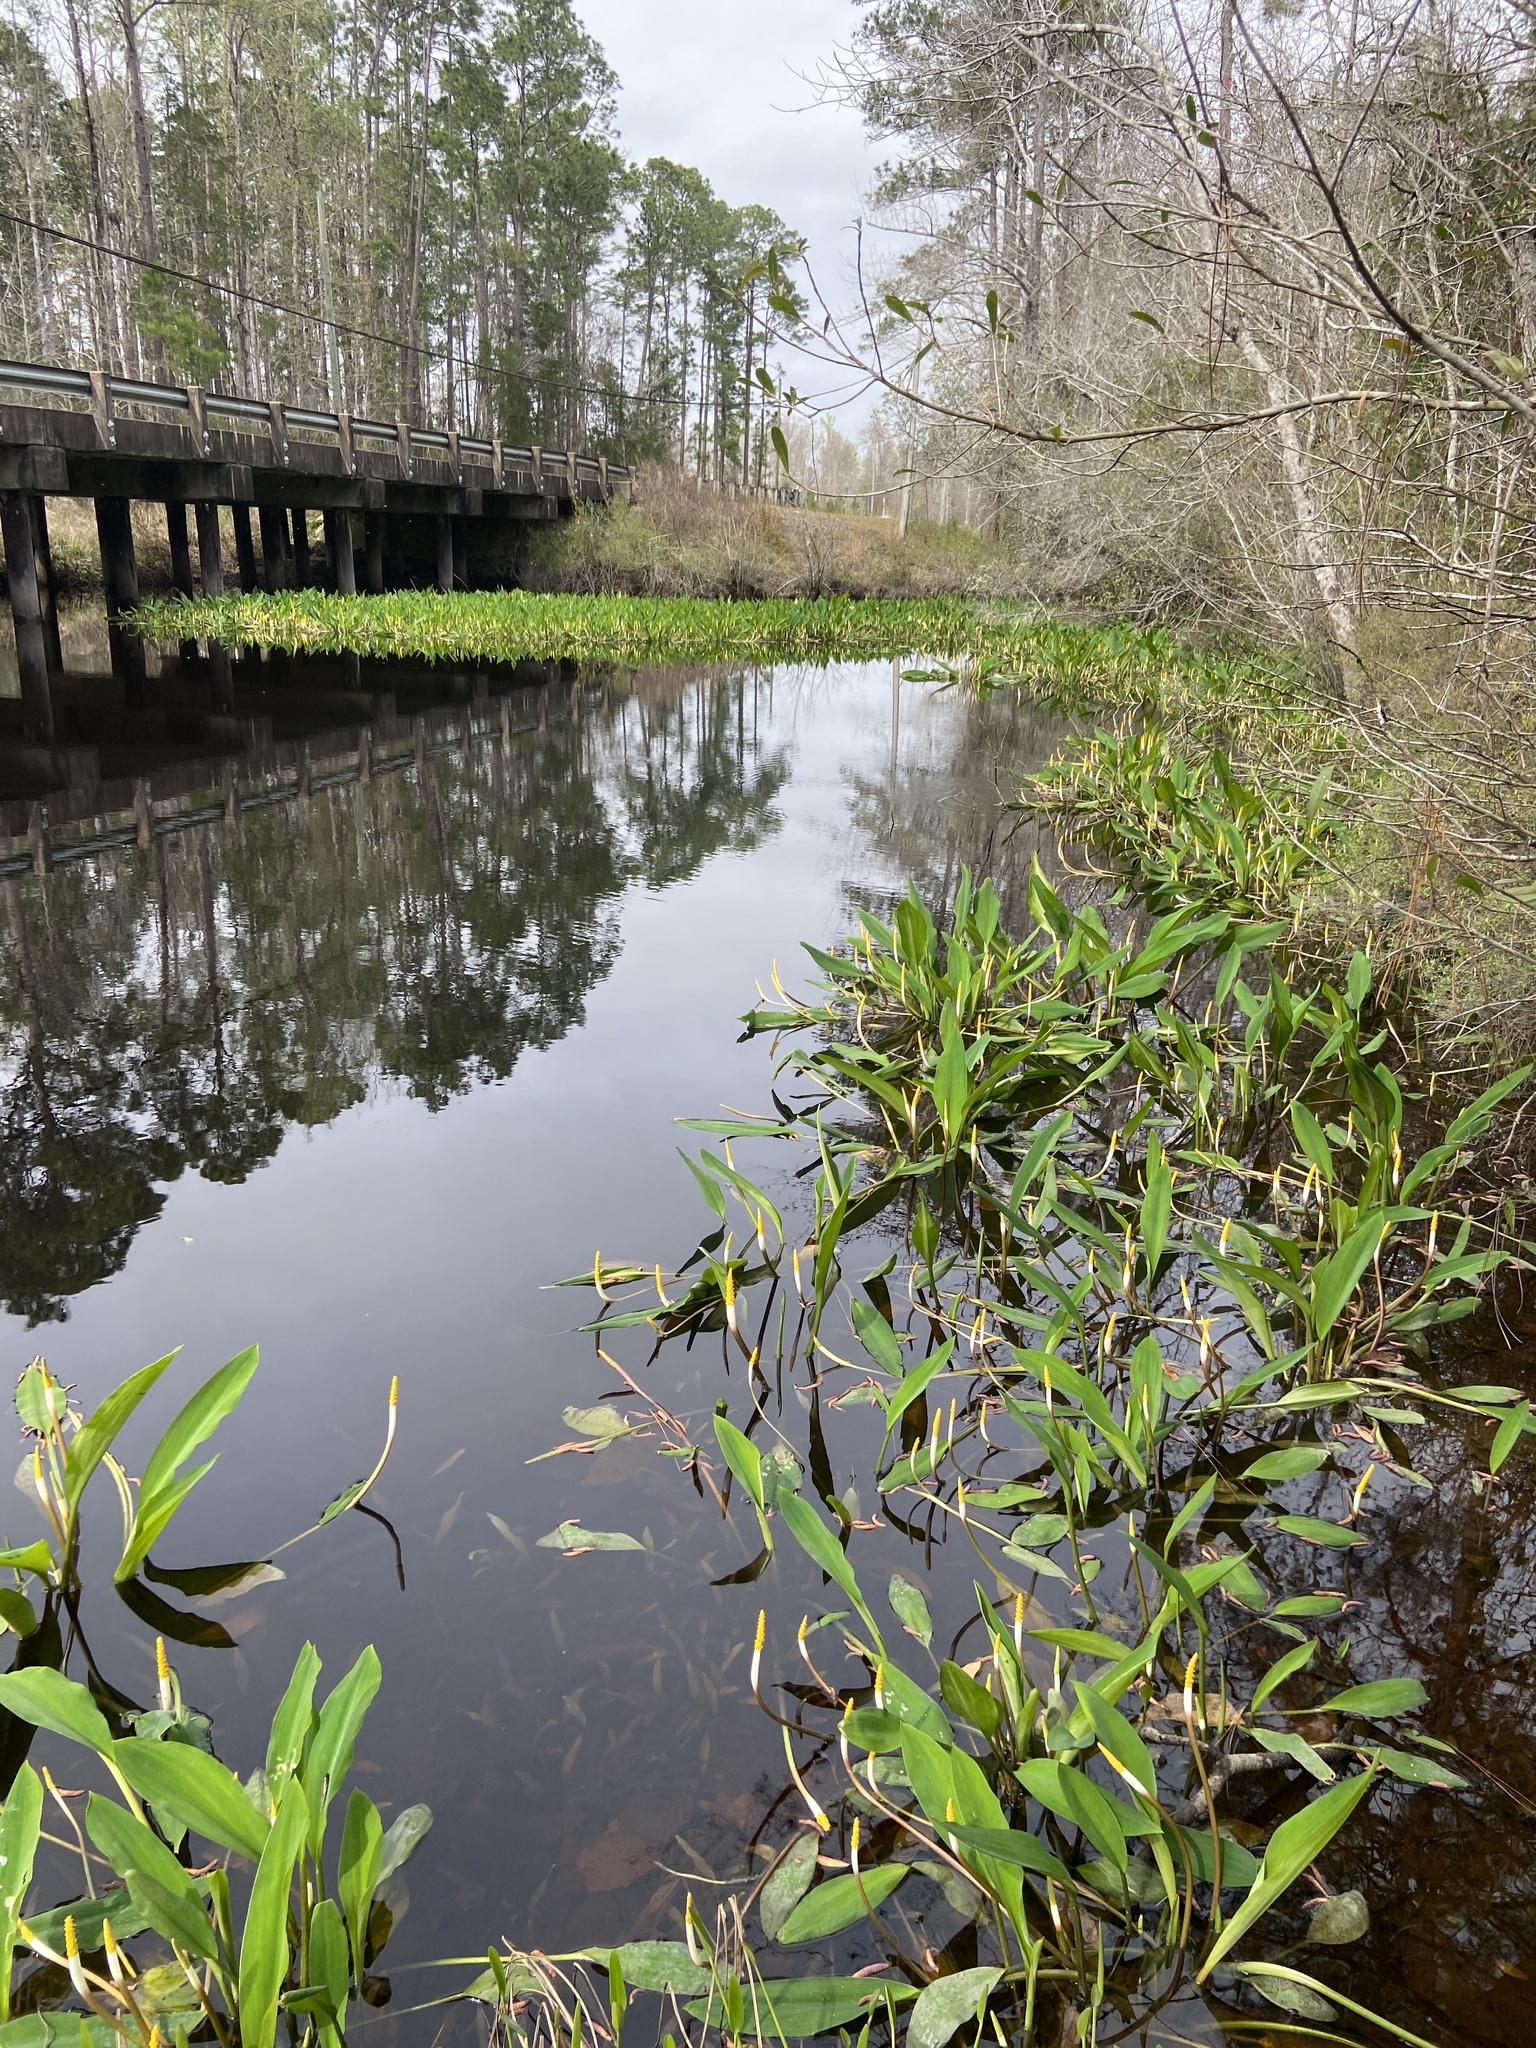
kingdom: Plantae
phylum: Tracheophyta
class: Liliopsida
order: Alismatales
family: Araceae
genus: Orontium
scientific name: Orontium aquaticum
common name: Golden-club
